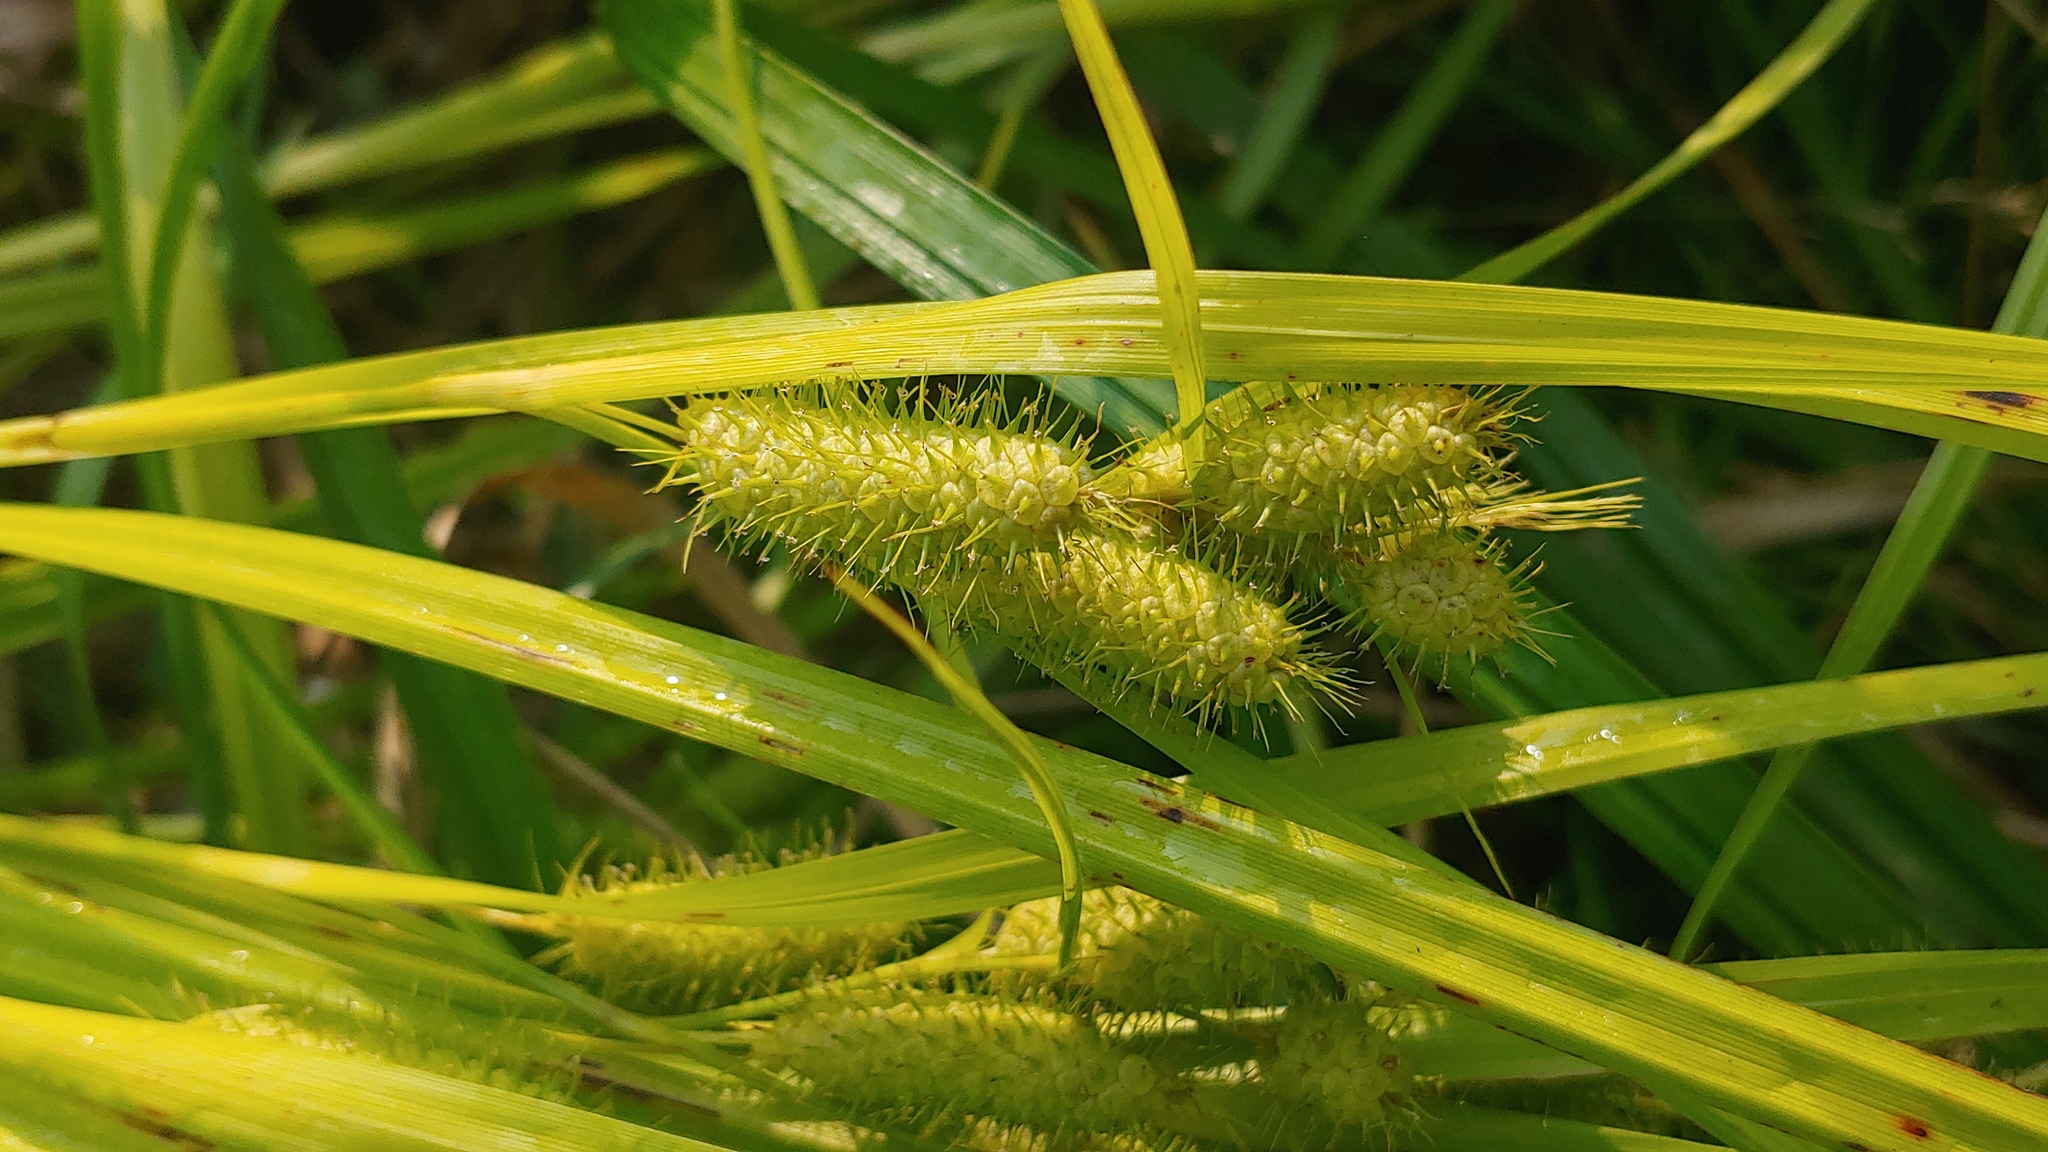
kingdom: Plantae
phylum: Tracheophyta
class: Liliopsida
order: Poales
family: Cyperaceae
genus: Carex
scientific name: Carex frankii
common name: Frank's sedge
